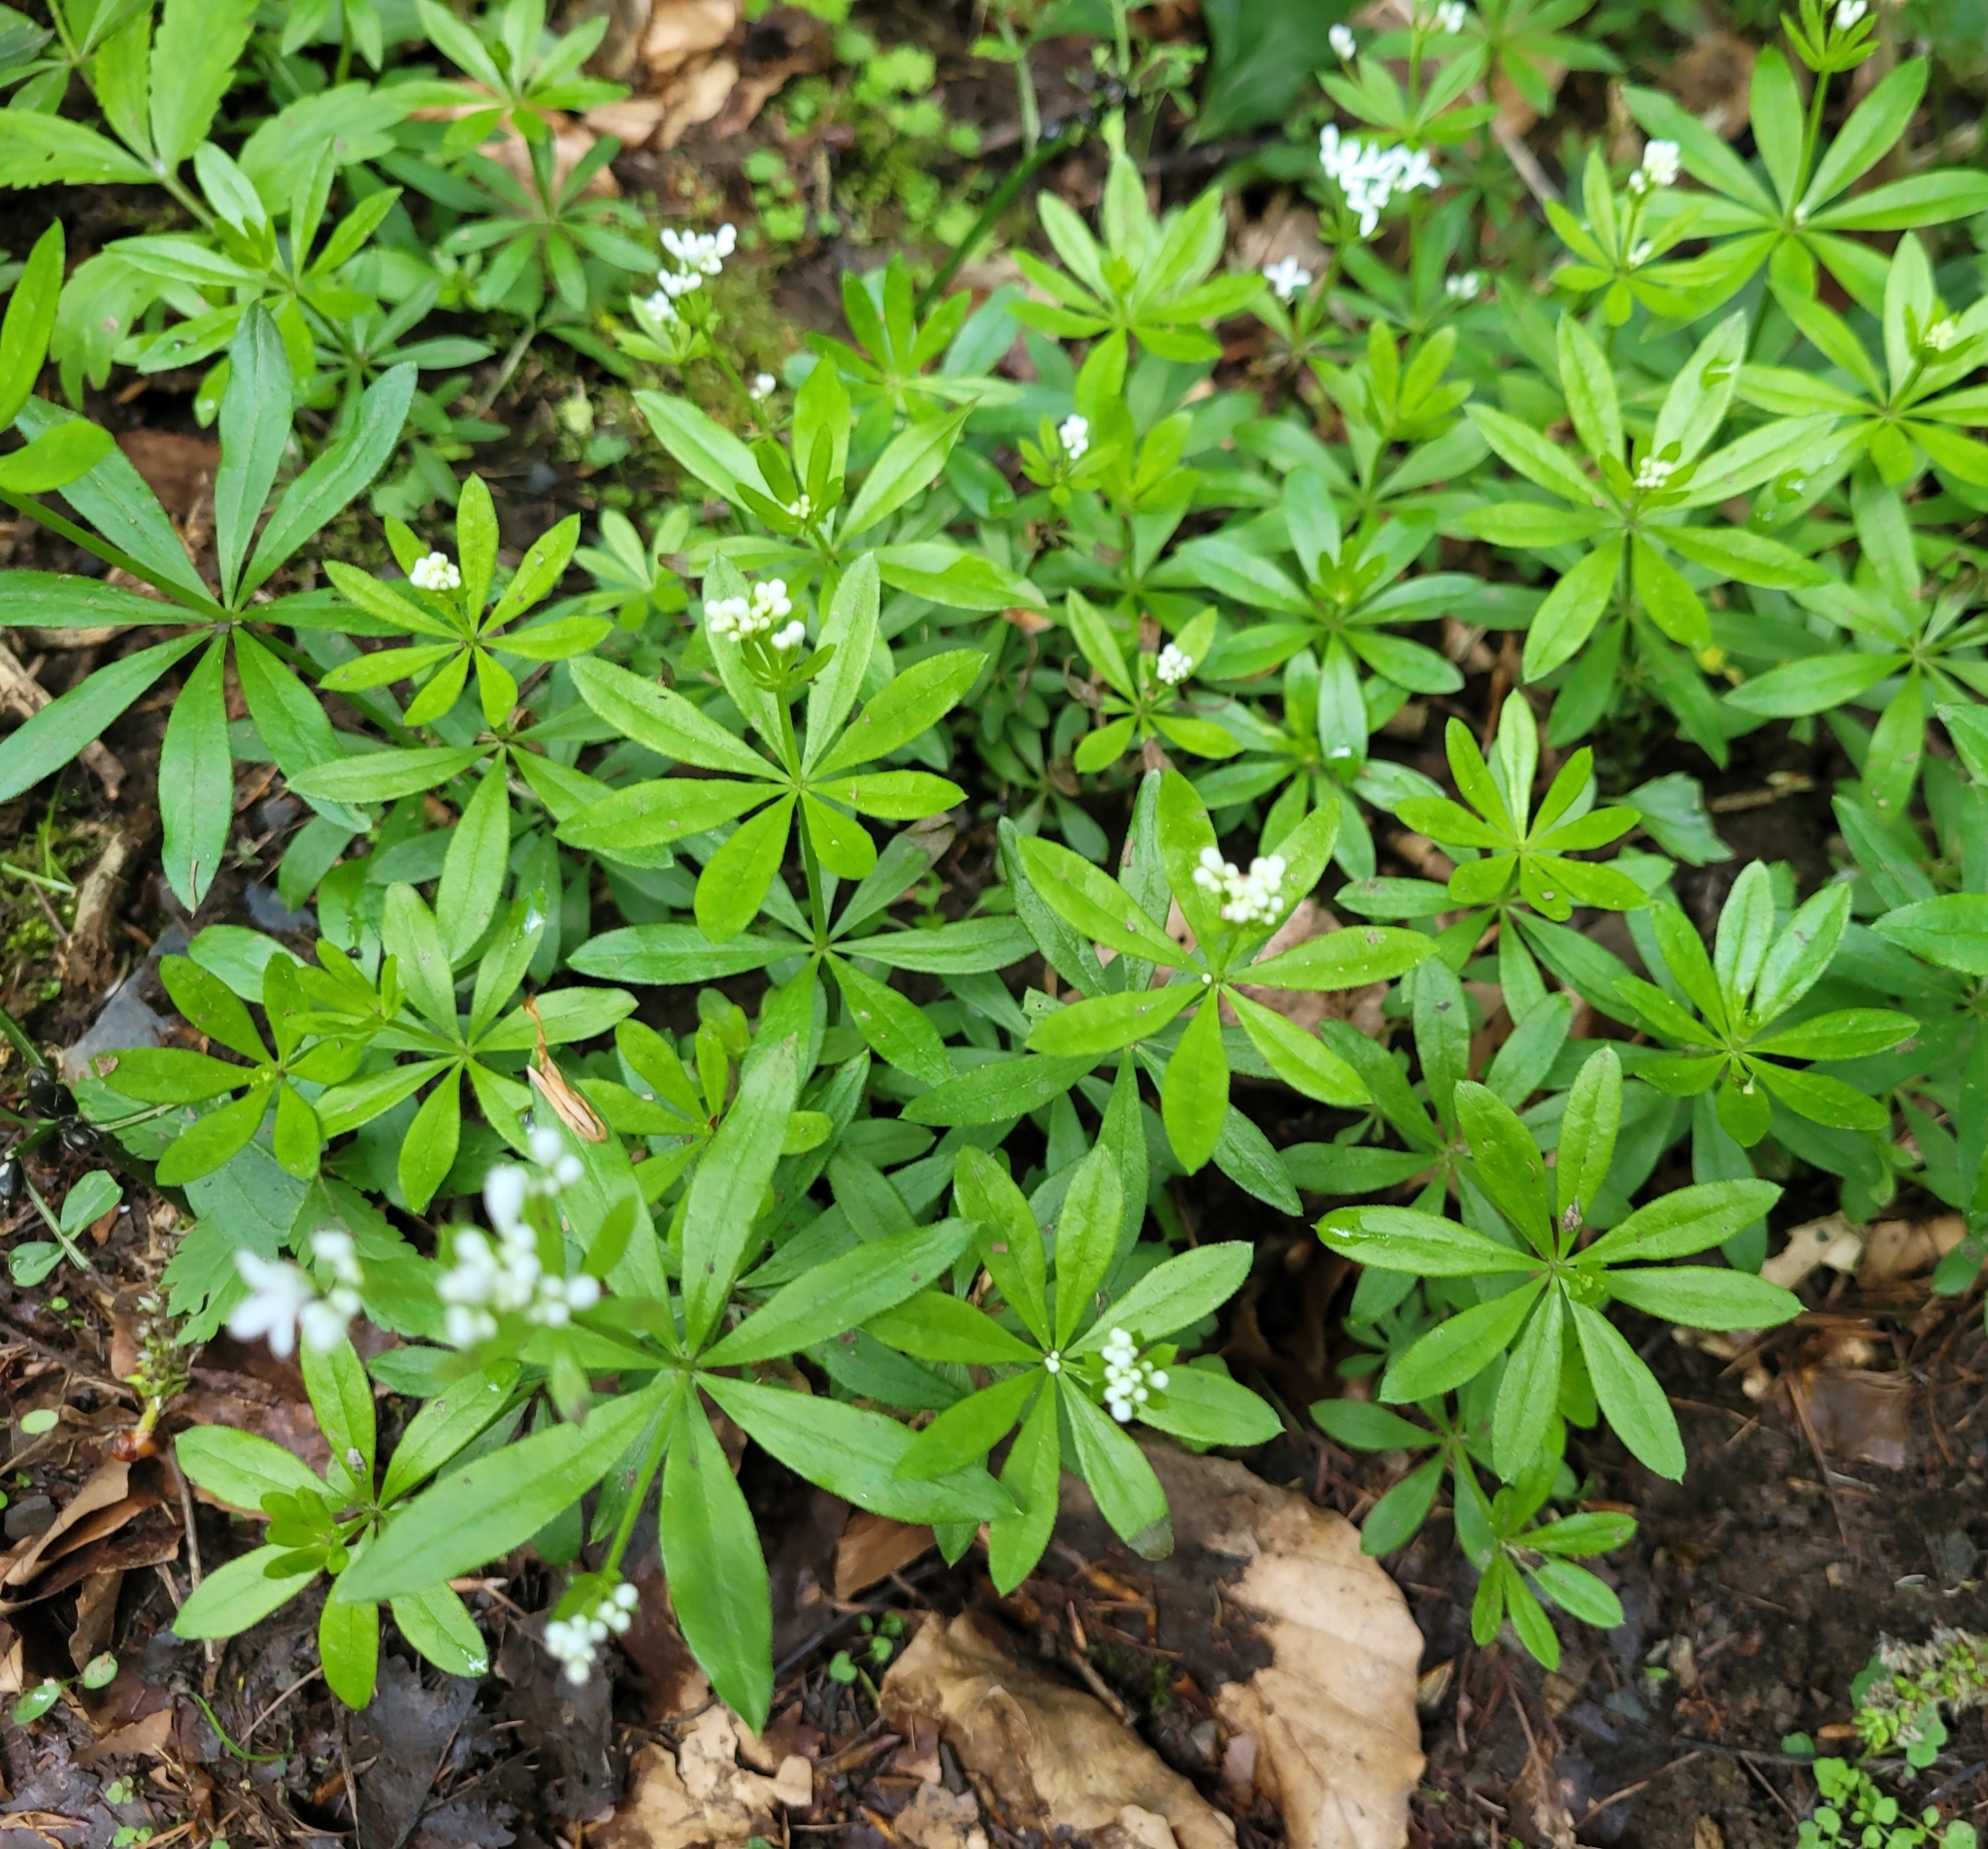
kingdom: Plantae
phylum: Tracheophyta
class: Magnoliopsida
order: Gentianales
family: Rubiaceae
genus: Galium
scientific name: Galium odoratum
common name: Sweet woodruff
